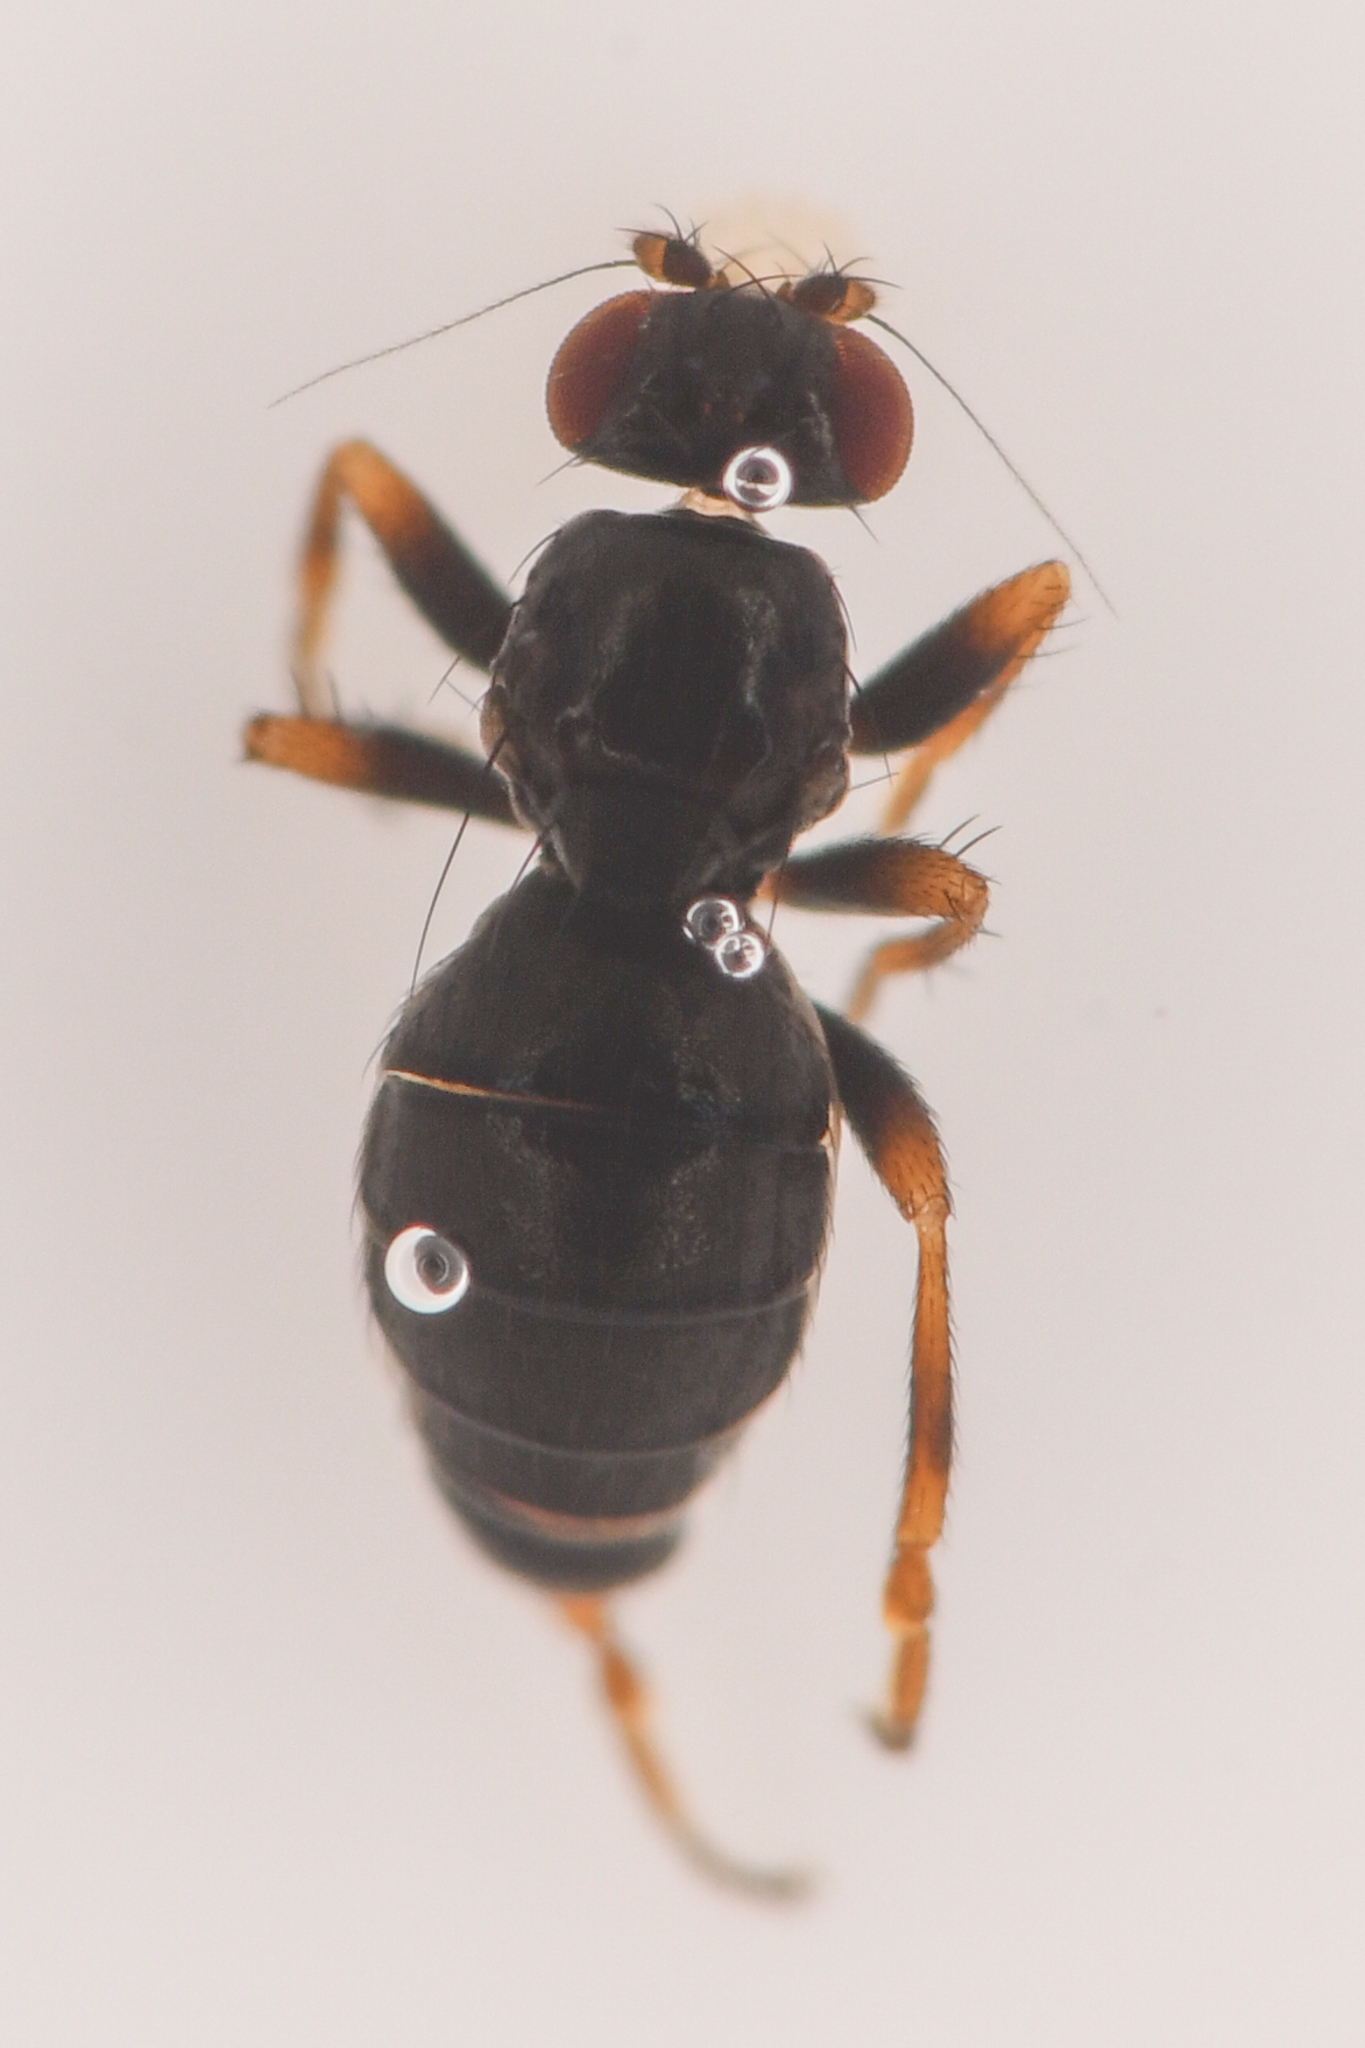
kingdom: Animalia
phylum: Arthropoda
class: Insecta
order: Diptera
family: Sphaeroceridae
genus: Aptilotus
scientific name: Aptilotus borealis
